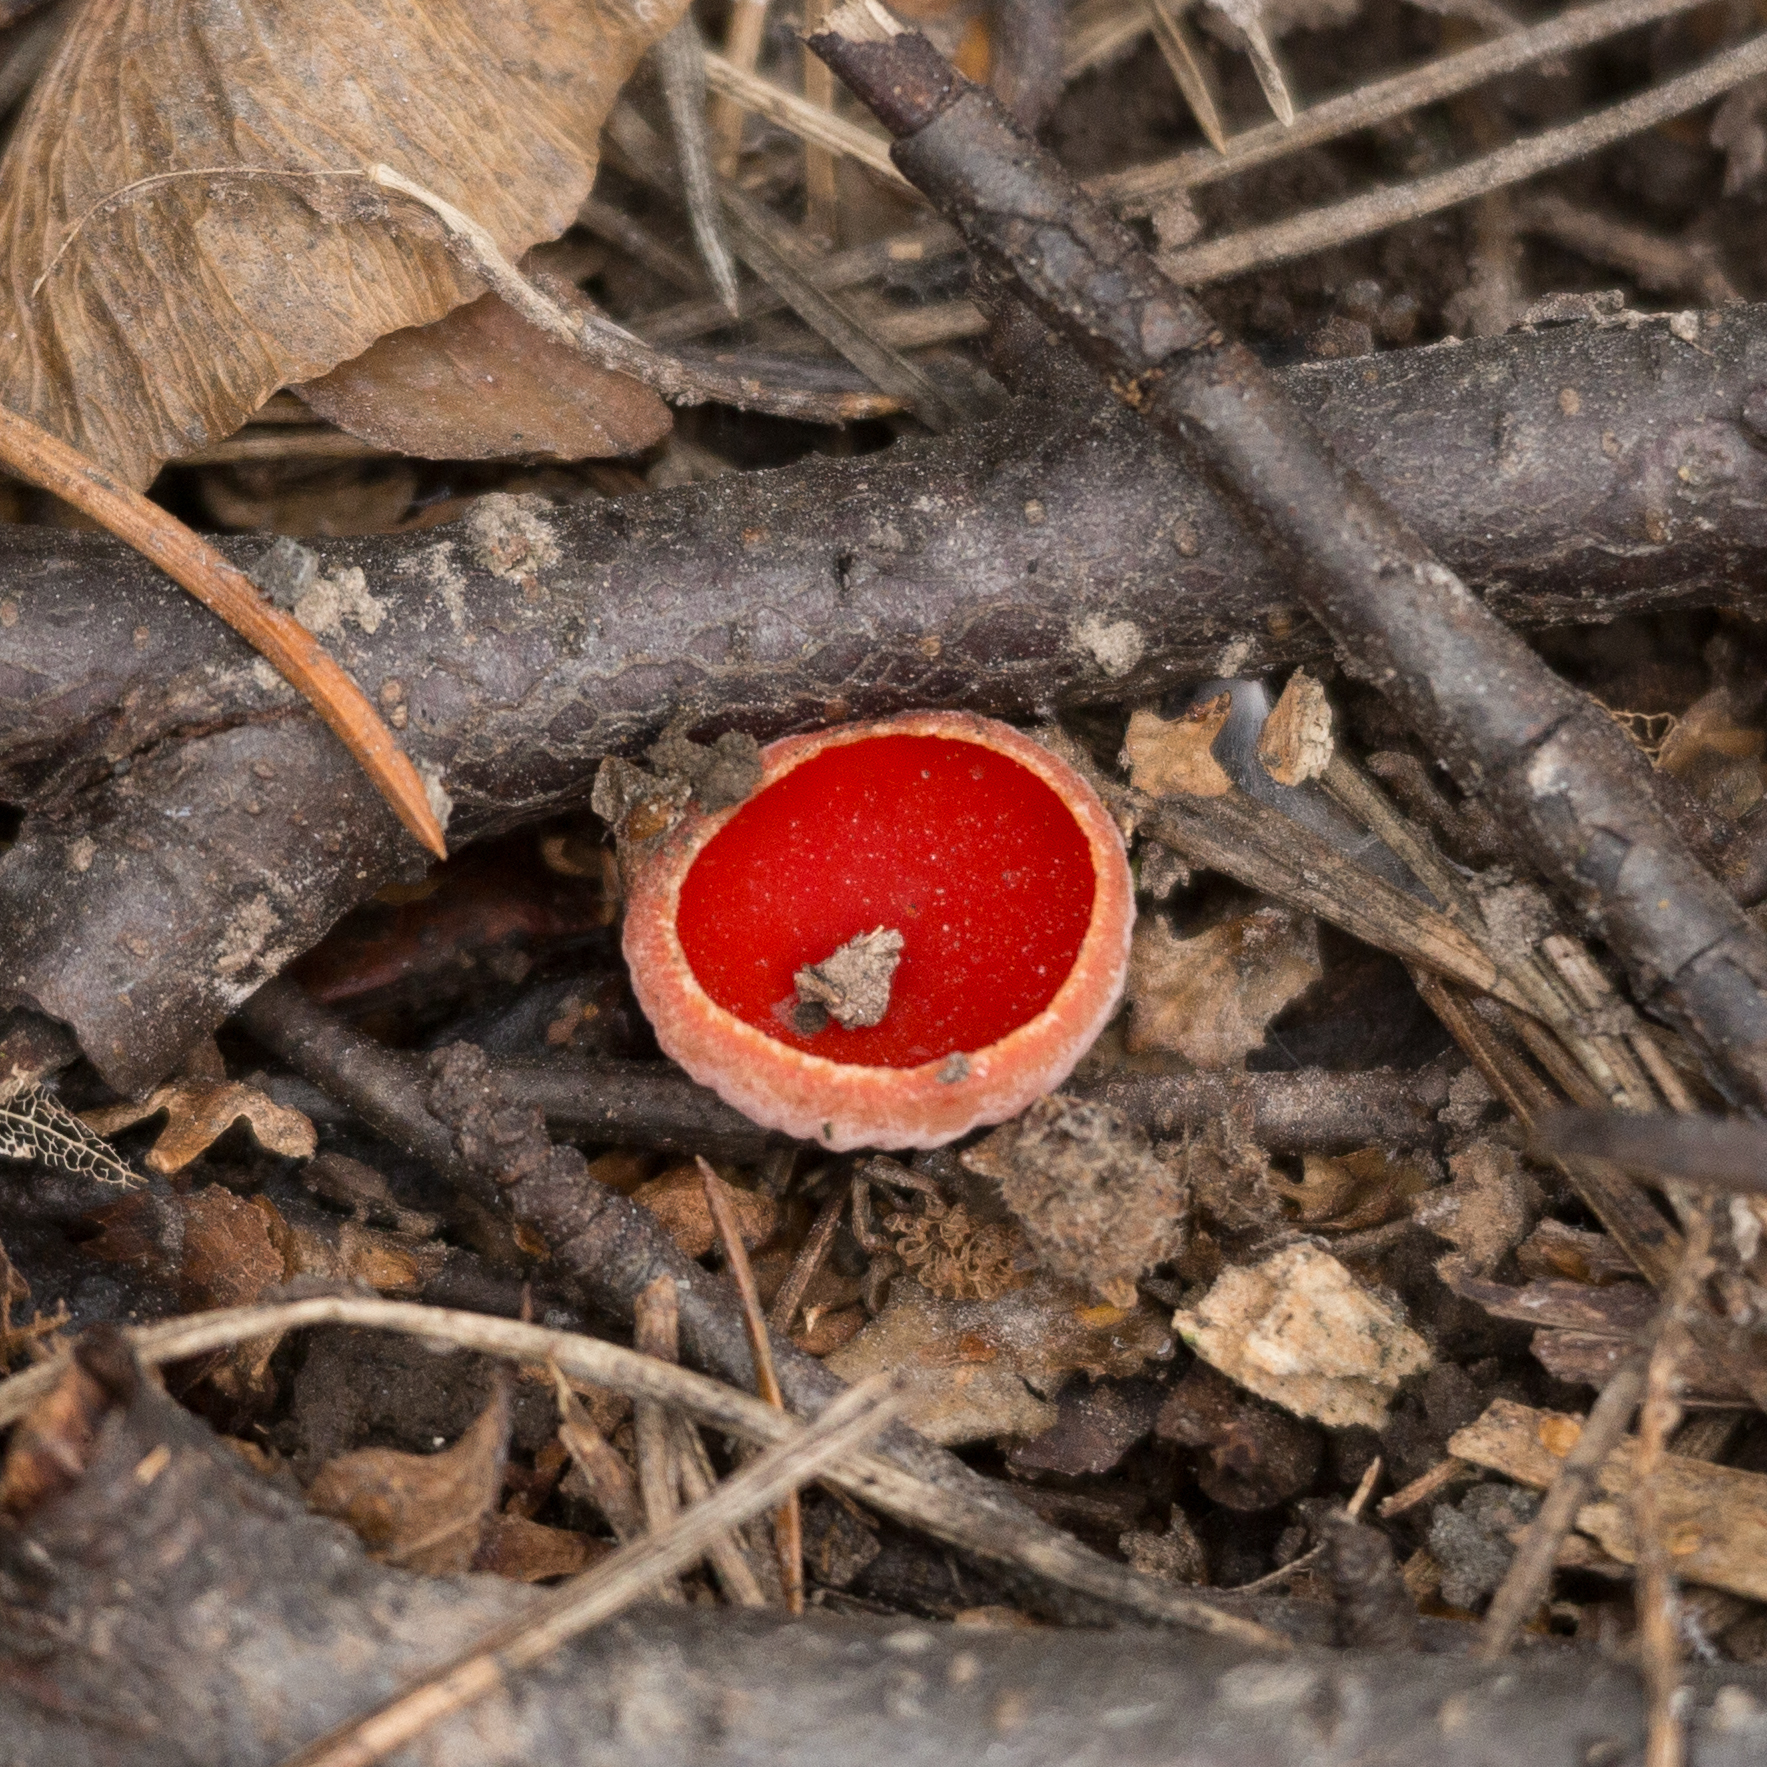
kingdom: Fungi
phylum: Ascomycota
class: Pezizomycetes
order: Pezizales
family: Sarcoscyphaceae
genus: Sarcoscypha
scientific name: Sarcoscypha austriaca
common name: Scarlet elfcup
